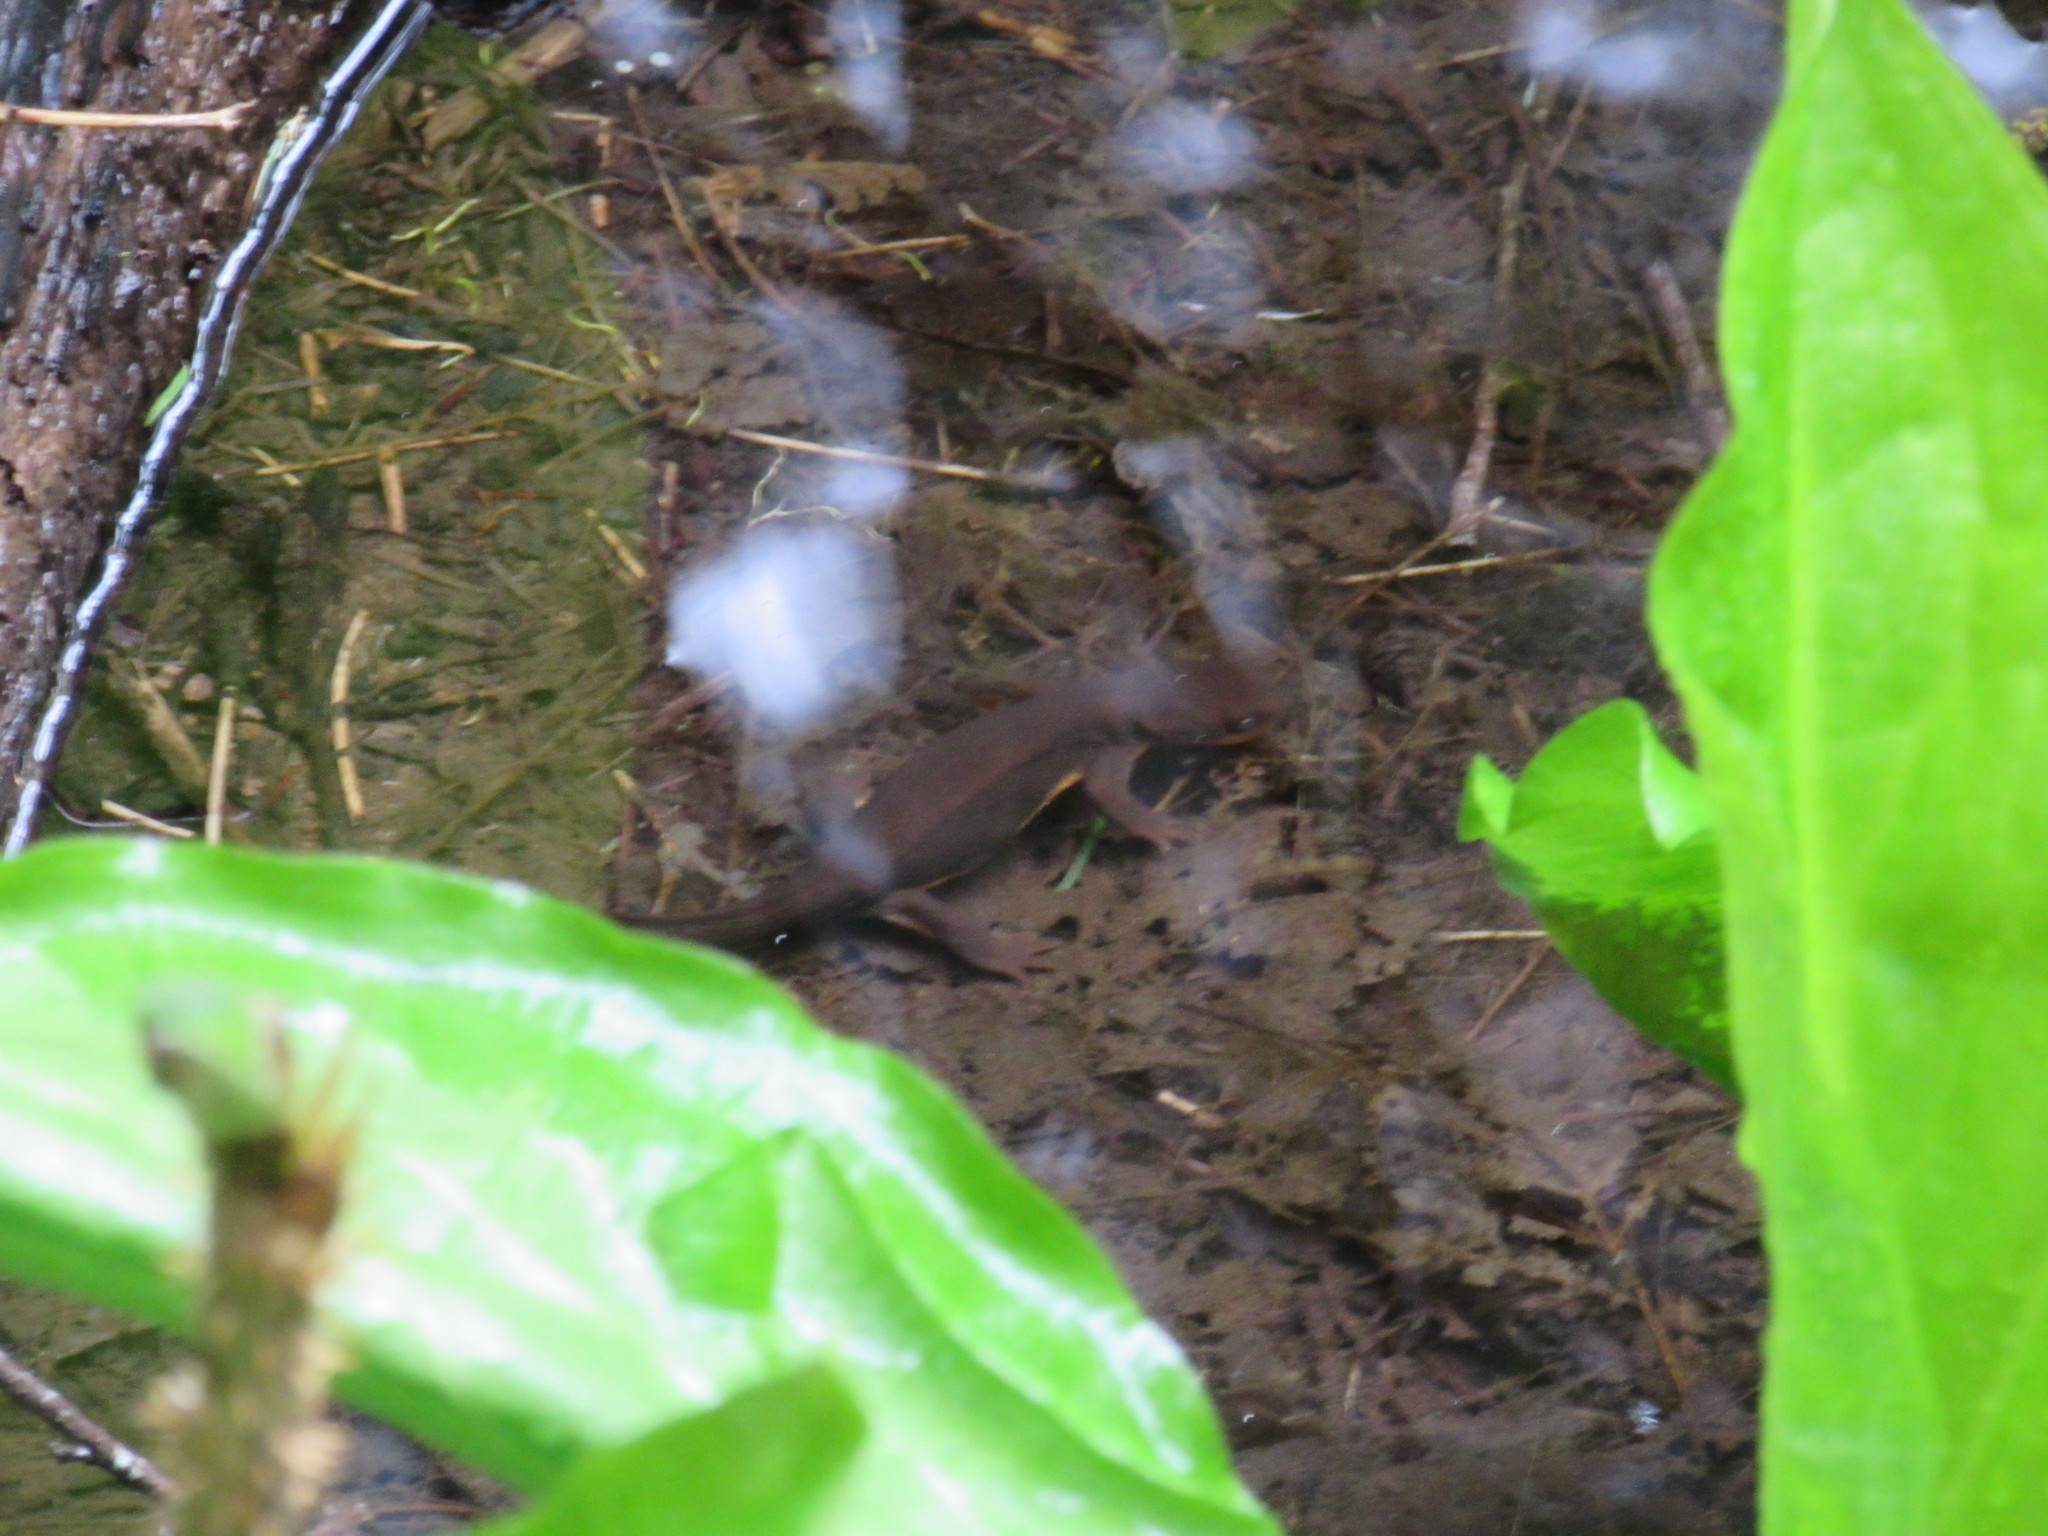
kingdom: Animalia
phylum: Chordata
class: Amphibia
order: Caudata
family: Salamandridae
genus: Taricha
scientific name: Taricha granulosa
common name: Roughskin newt
